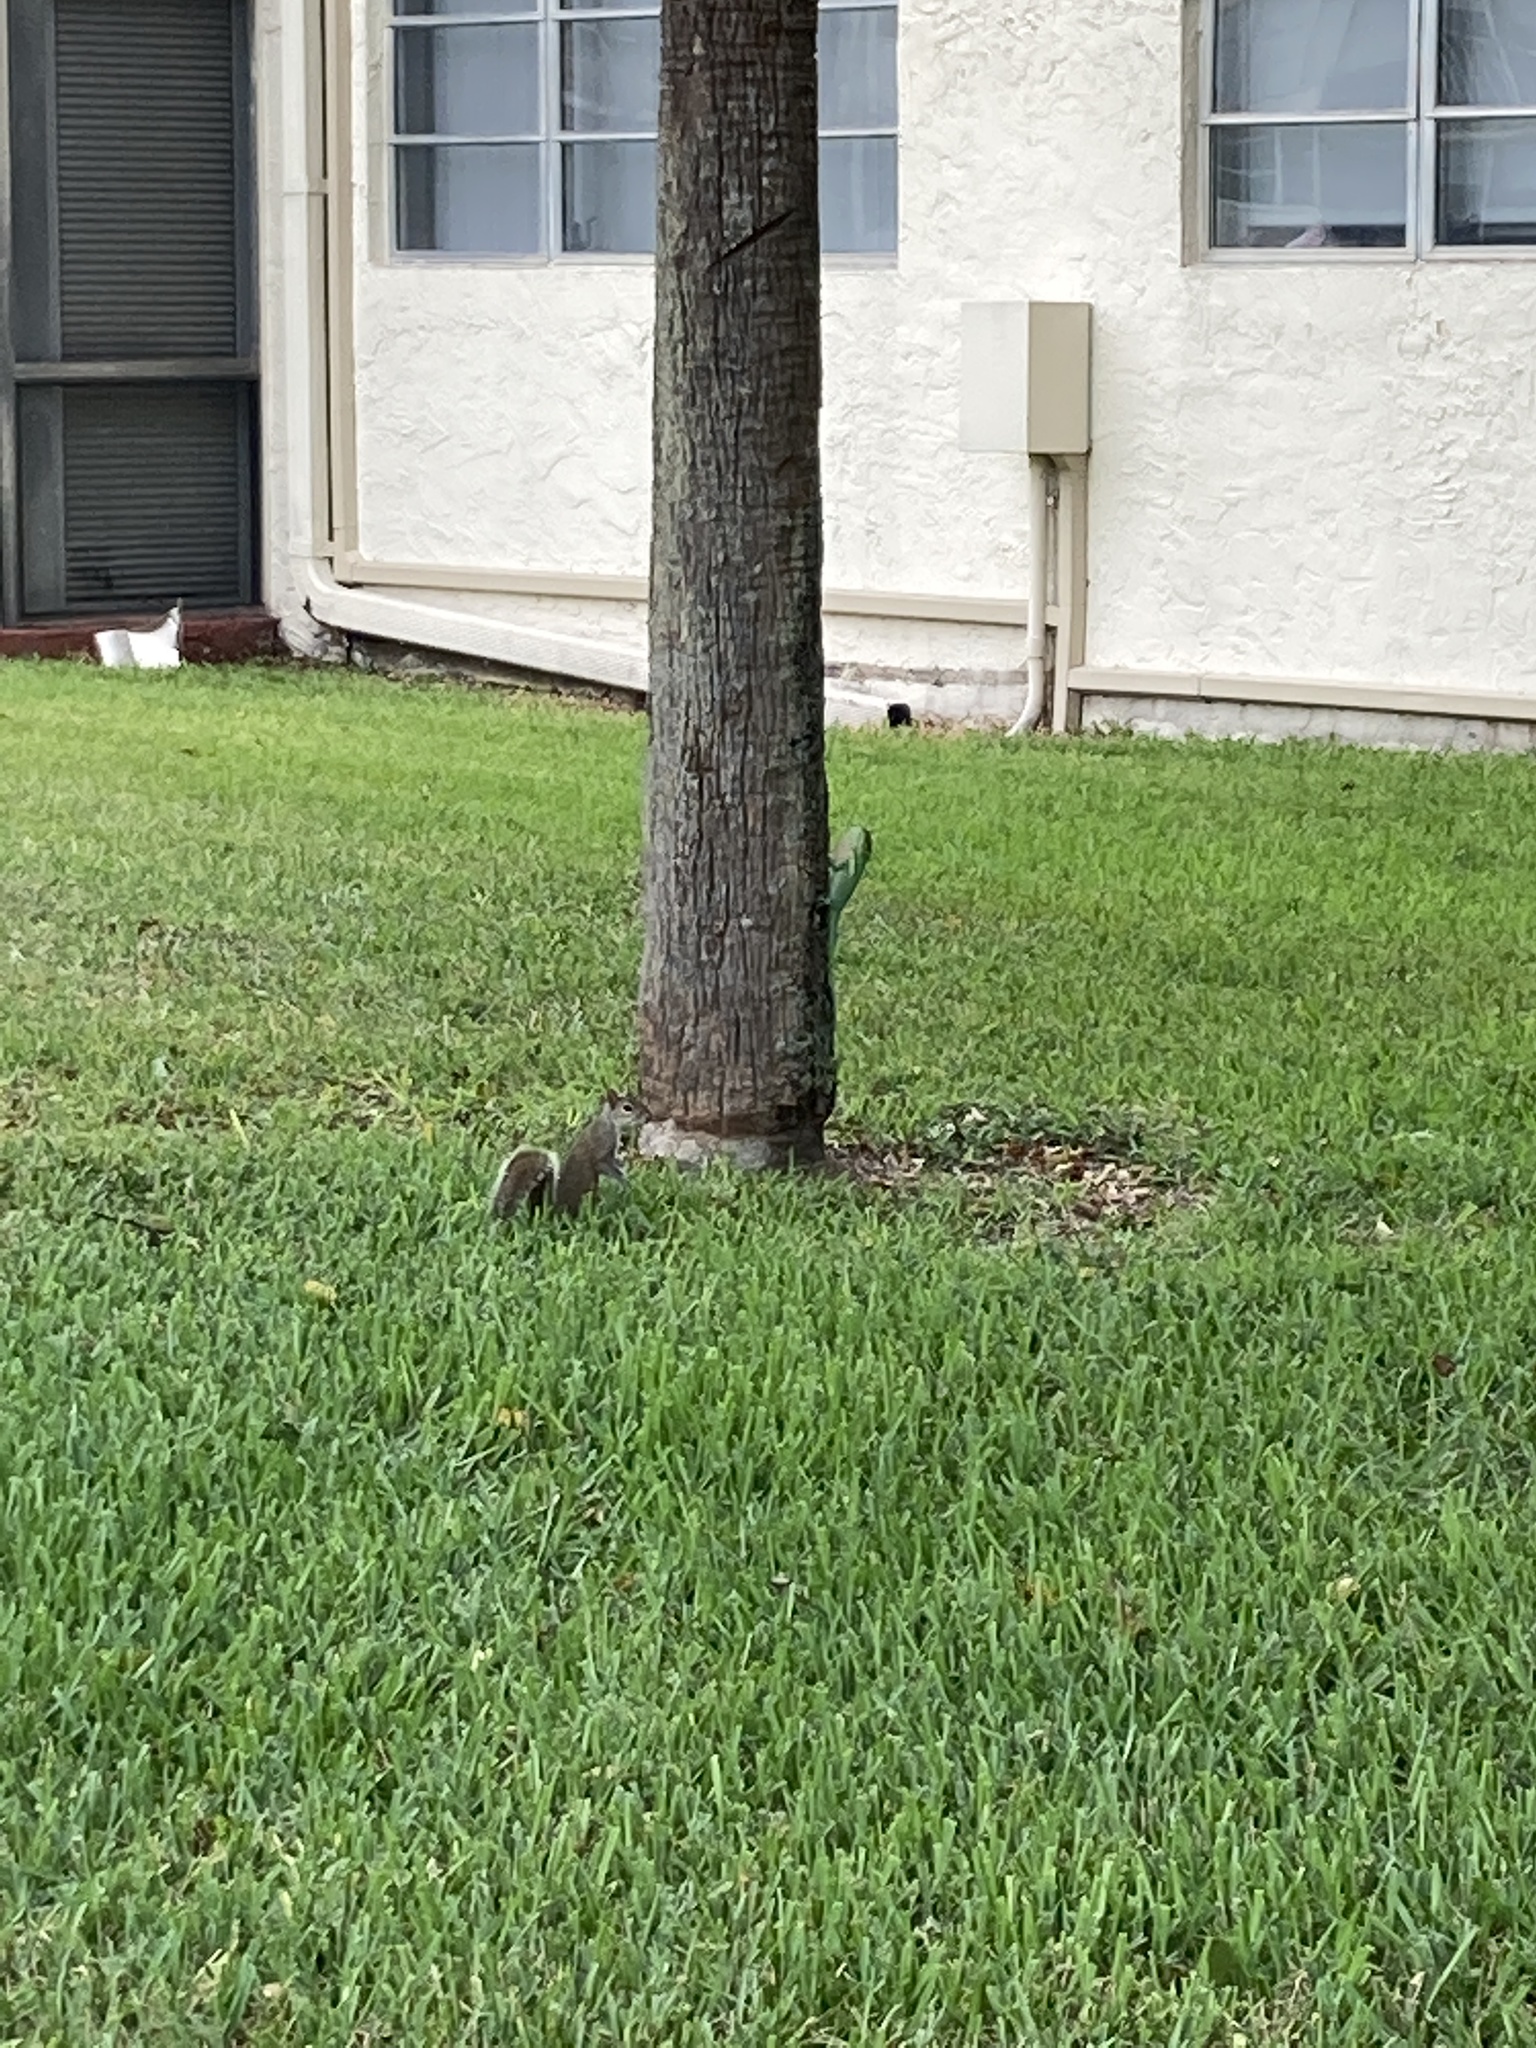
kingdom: Animalia
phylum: Chordata
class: Mammalia
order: Rodentia
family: Sciuridae
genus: Sciurus
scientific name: Sciurus carolinensis
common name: Eastern gray squirrel
